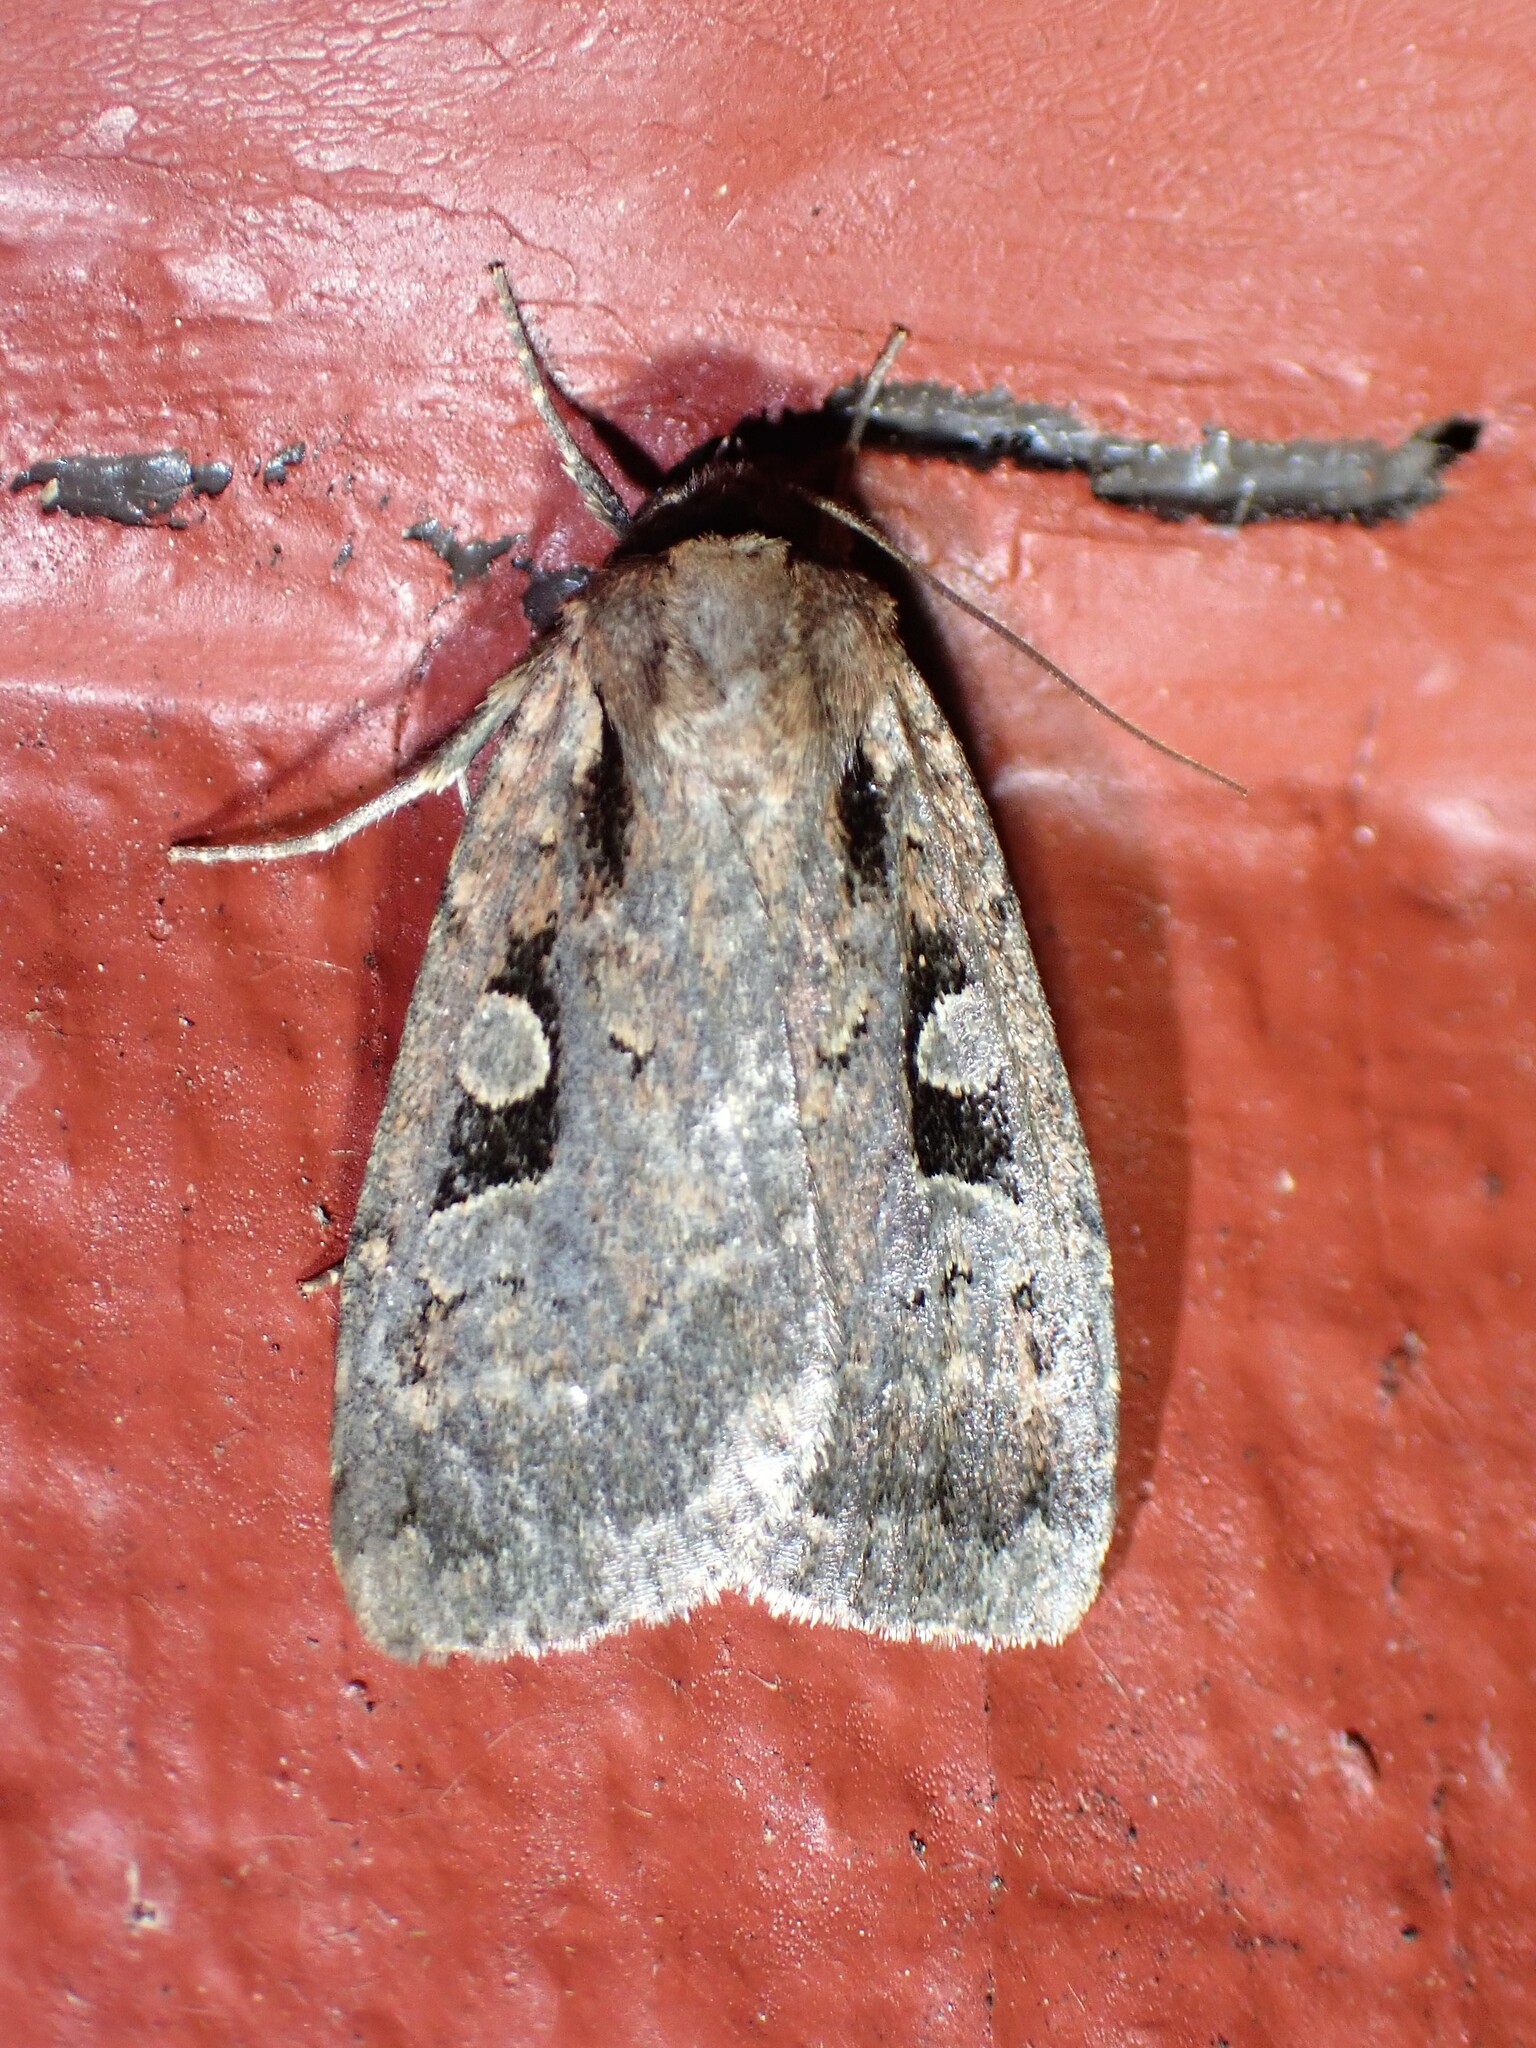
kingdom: Animalia
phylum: Arthropoda
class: Insecta
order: Lepidoptera
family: Noctuidae
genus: Eueretagrotis
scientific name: Eueretagrotis perattentus
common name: Two-spot dart moth
